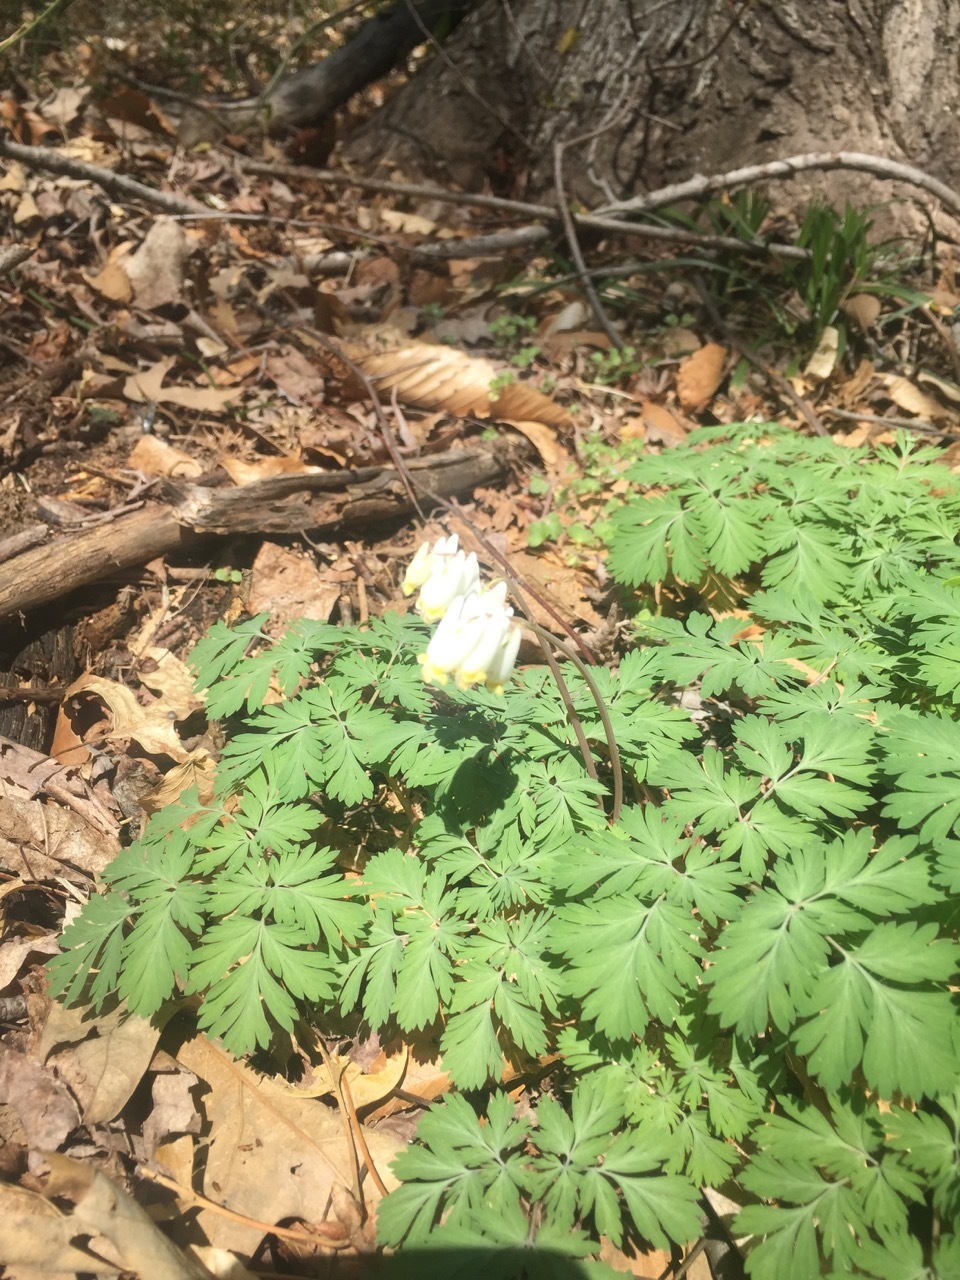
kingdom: Plantae
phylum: Tracheophyta
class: Magnoliopsida
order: Ranunculales
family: Papaveraceae
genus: Dicentra
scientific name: Dicentra cucullaria
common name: Dutchman's breeches
